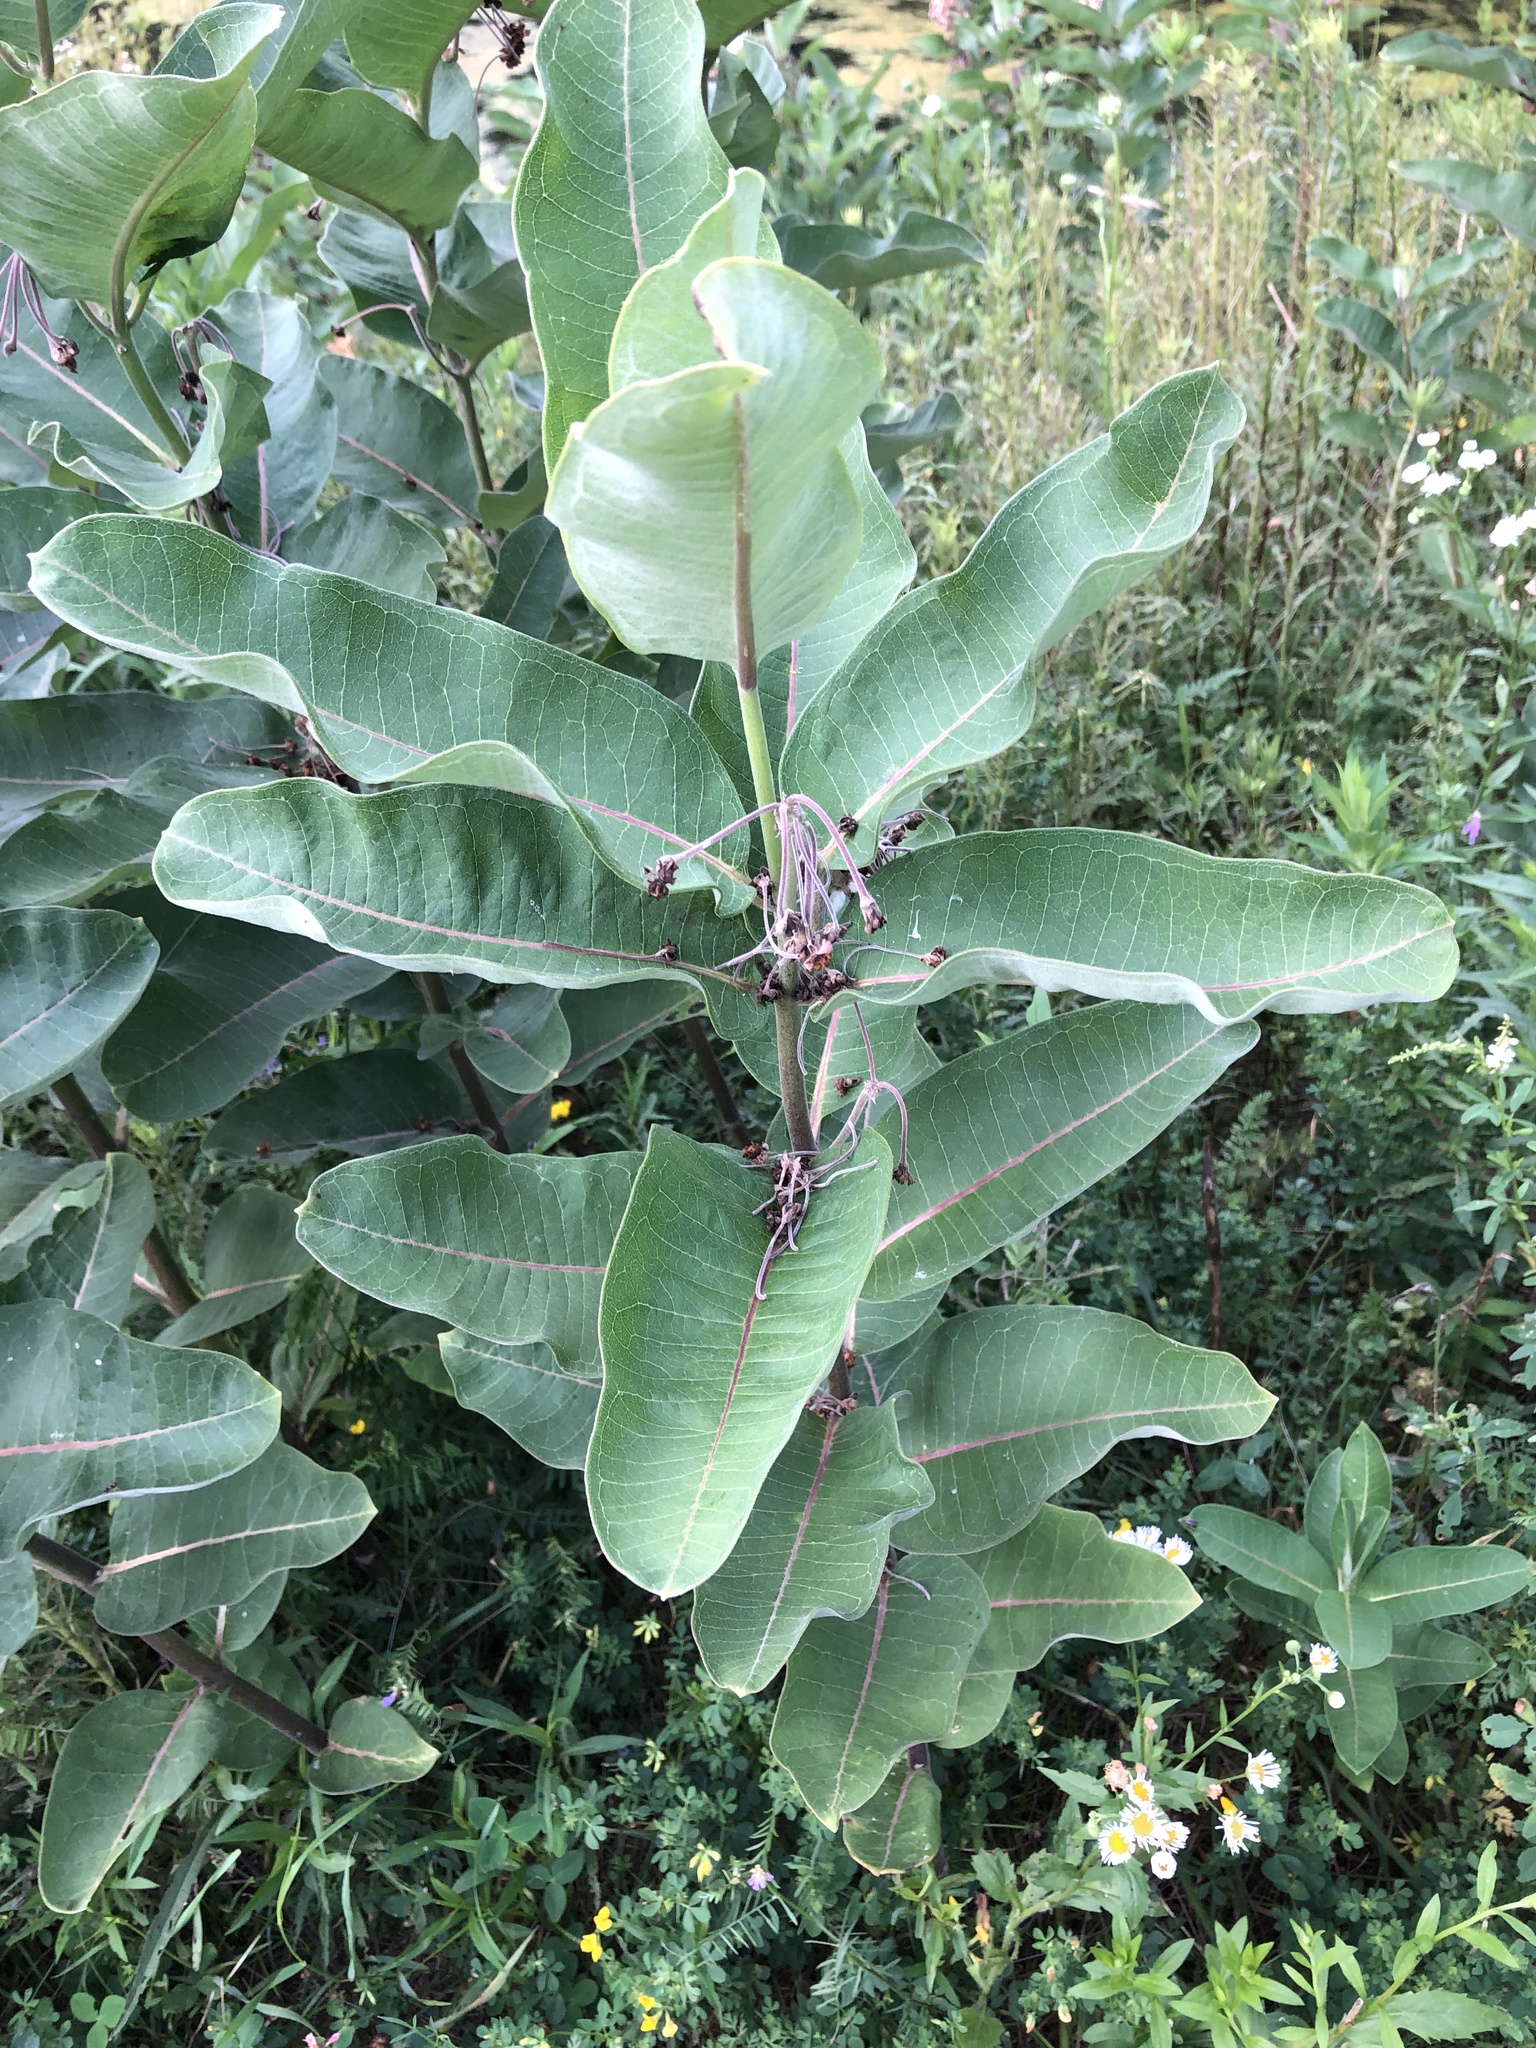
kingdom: Plantae
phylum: Tracheophyta
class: Magnoliopsida
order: Gentianales
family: Apocynaceae
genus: Asclepias
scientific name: Asclepias syriaca
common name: Common milkweed
